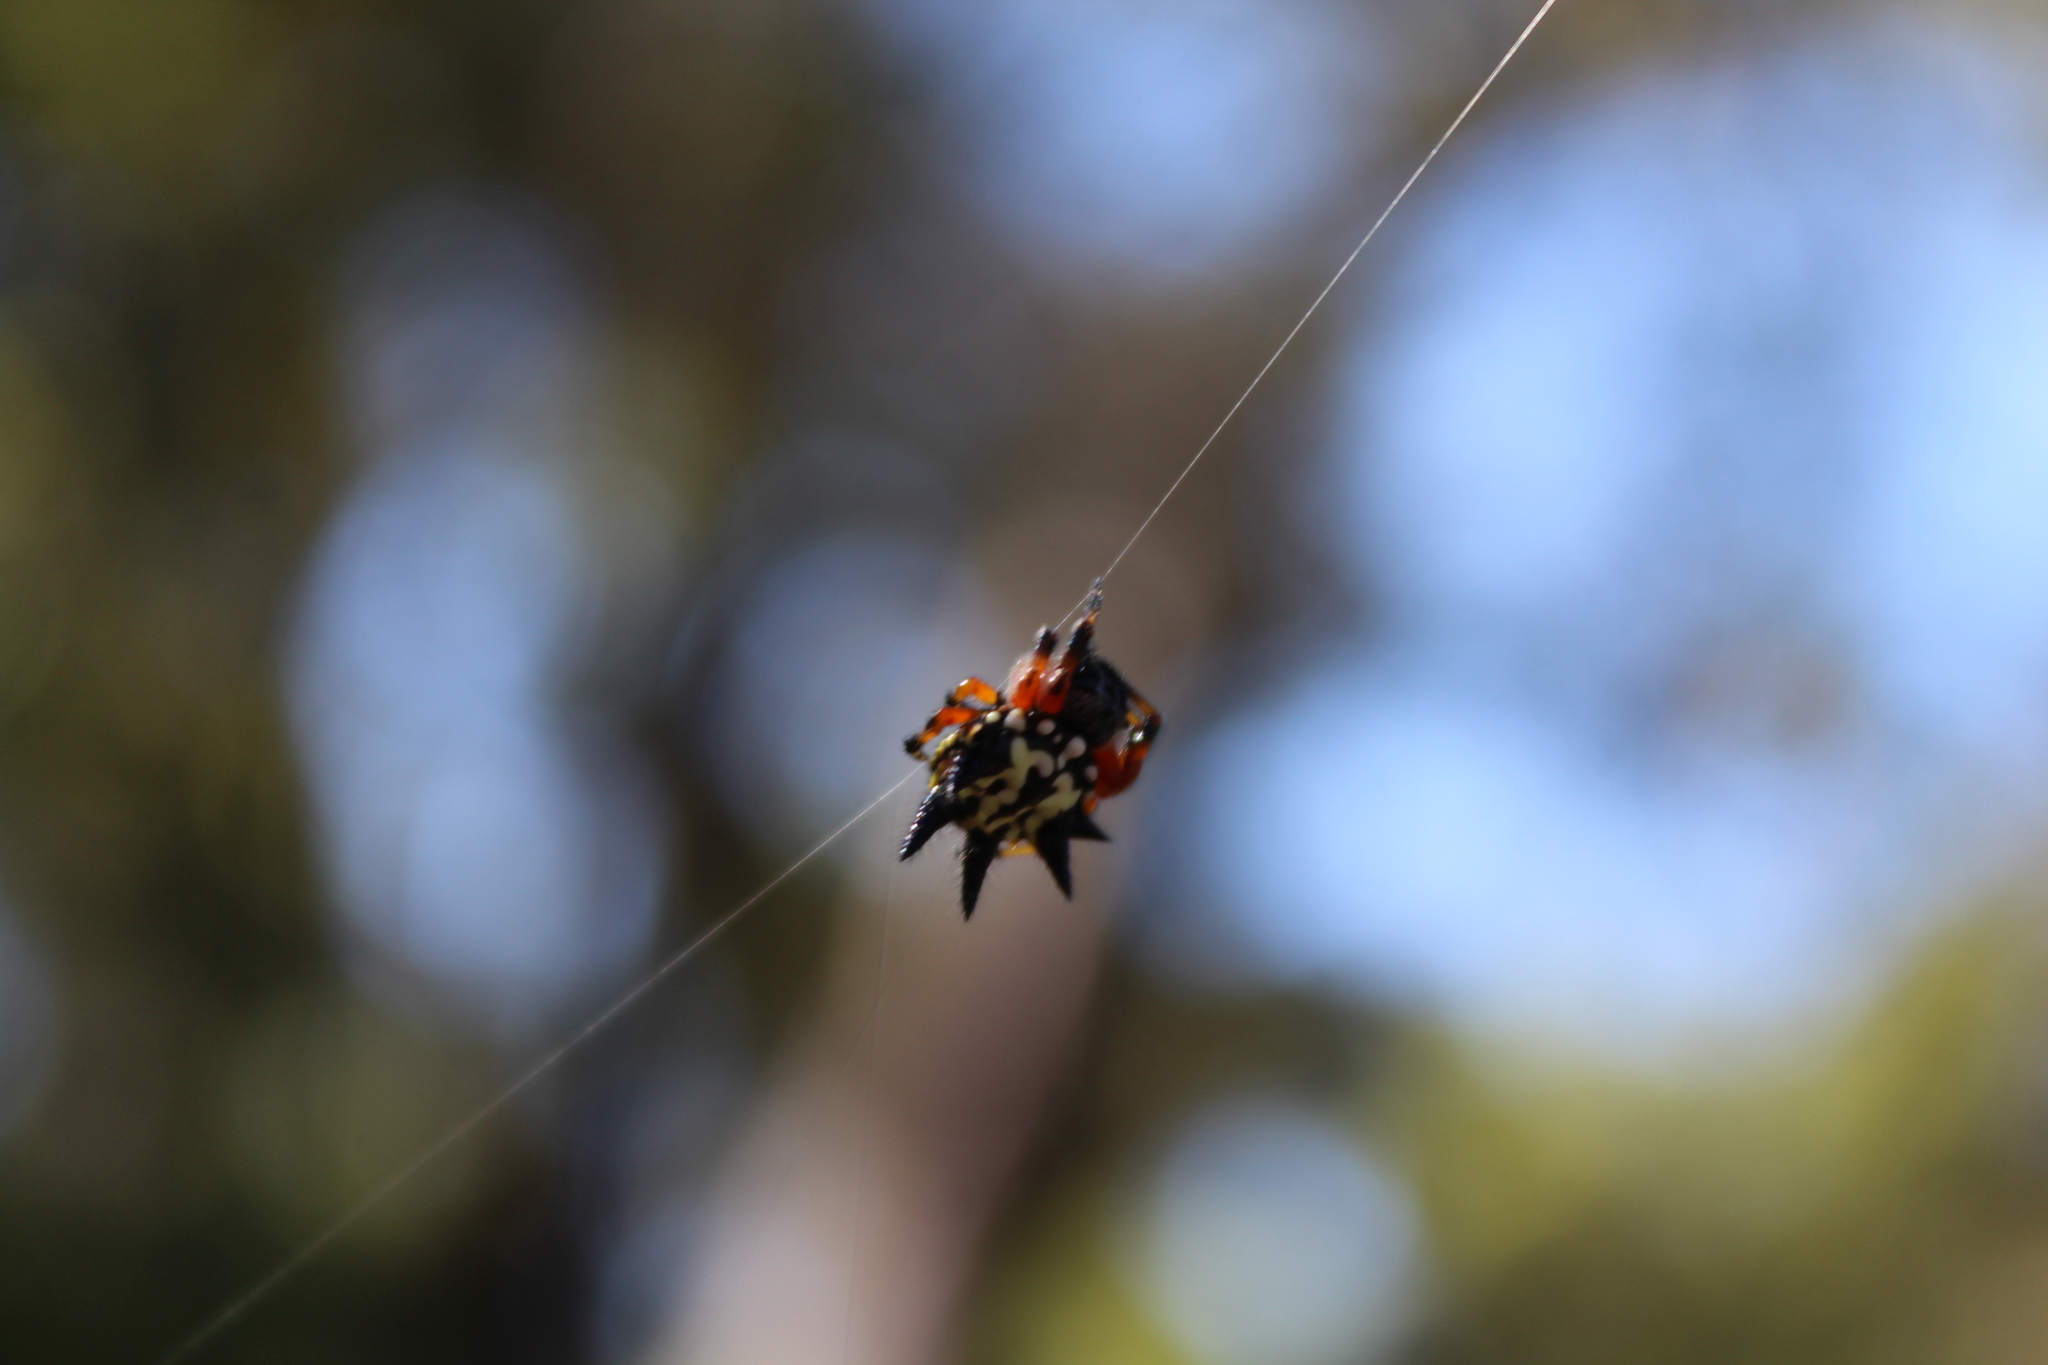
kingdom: Animalia
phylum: Arthropoda
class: Arachnida
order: Araneae
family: Araneidae
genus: Austracantha
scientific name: Austracantha minax
